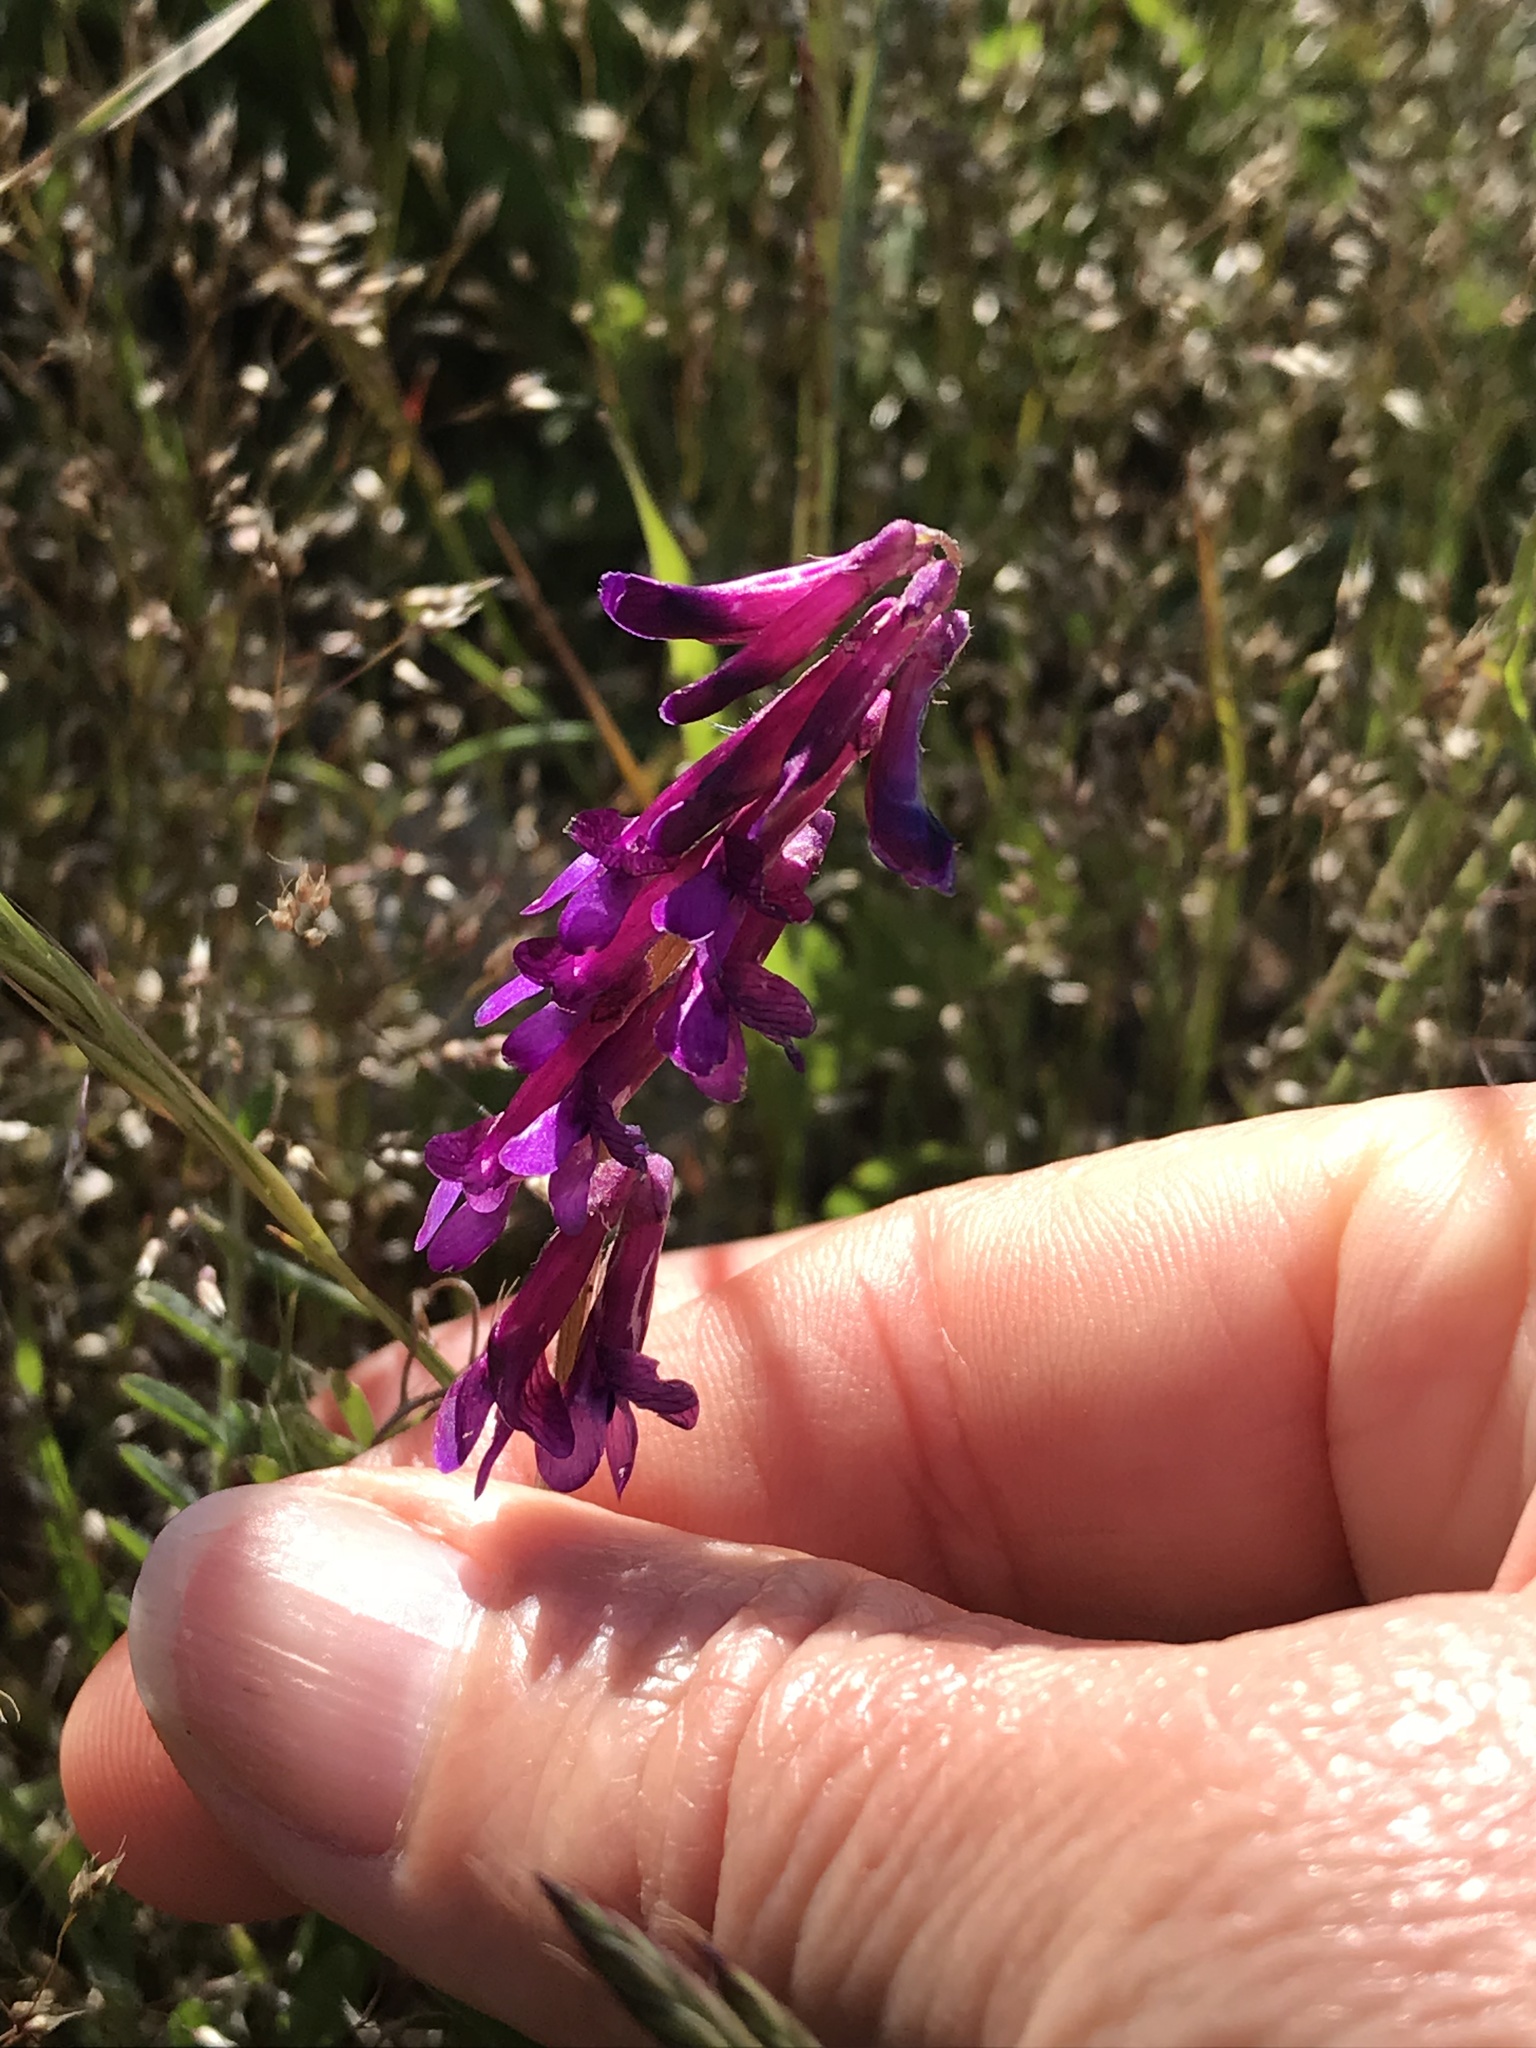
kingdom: Plantae
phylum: Tracheophyta
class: Magnoliopsida
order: Fabales
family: Fabaceae
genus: Vicia
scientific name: Vicia villosa
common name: Fodder vetch
